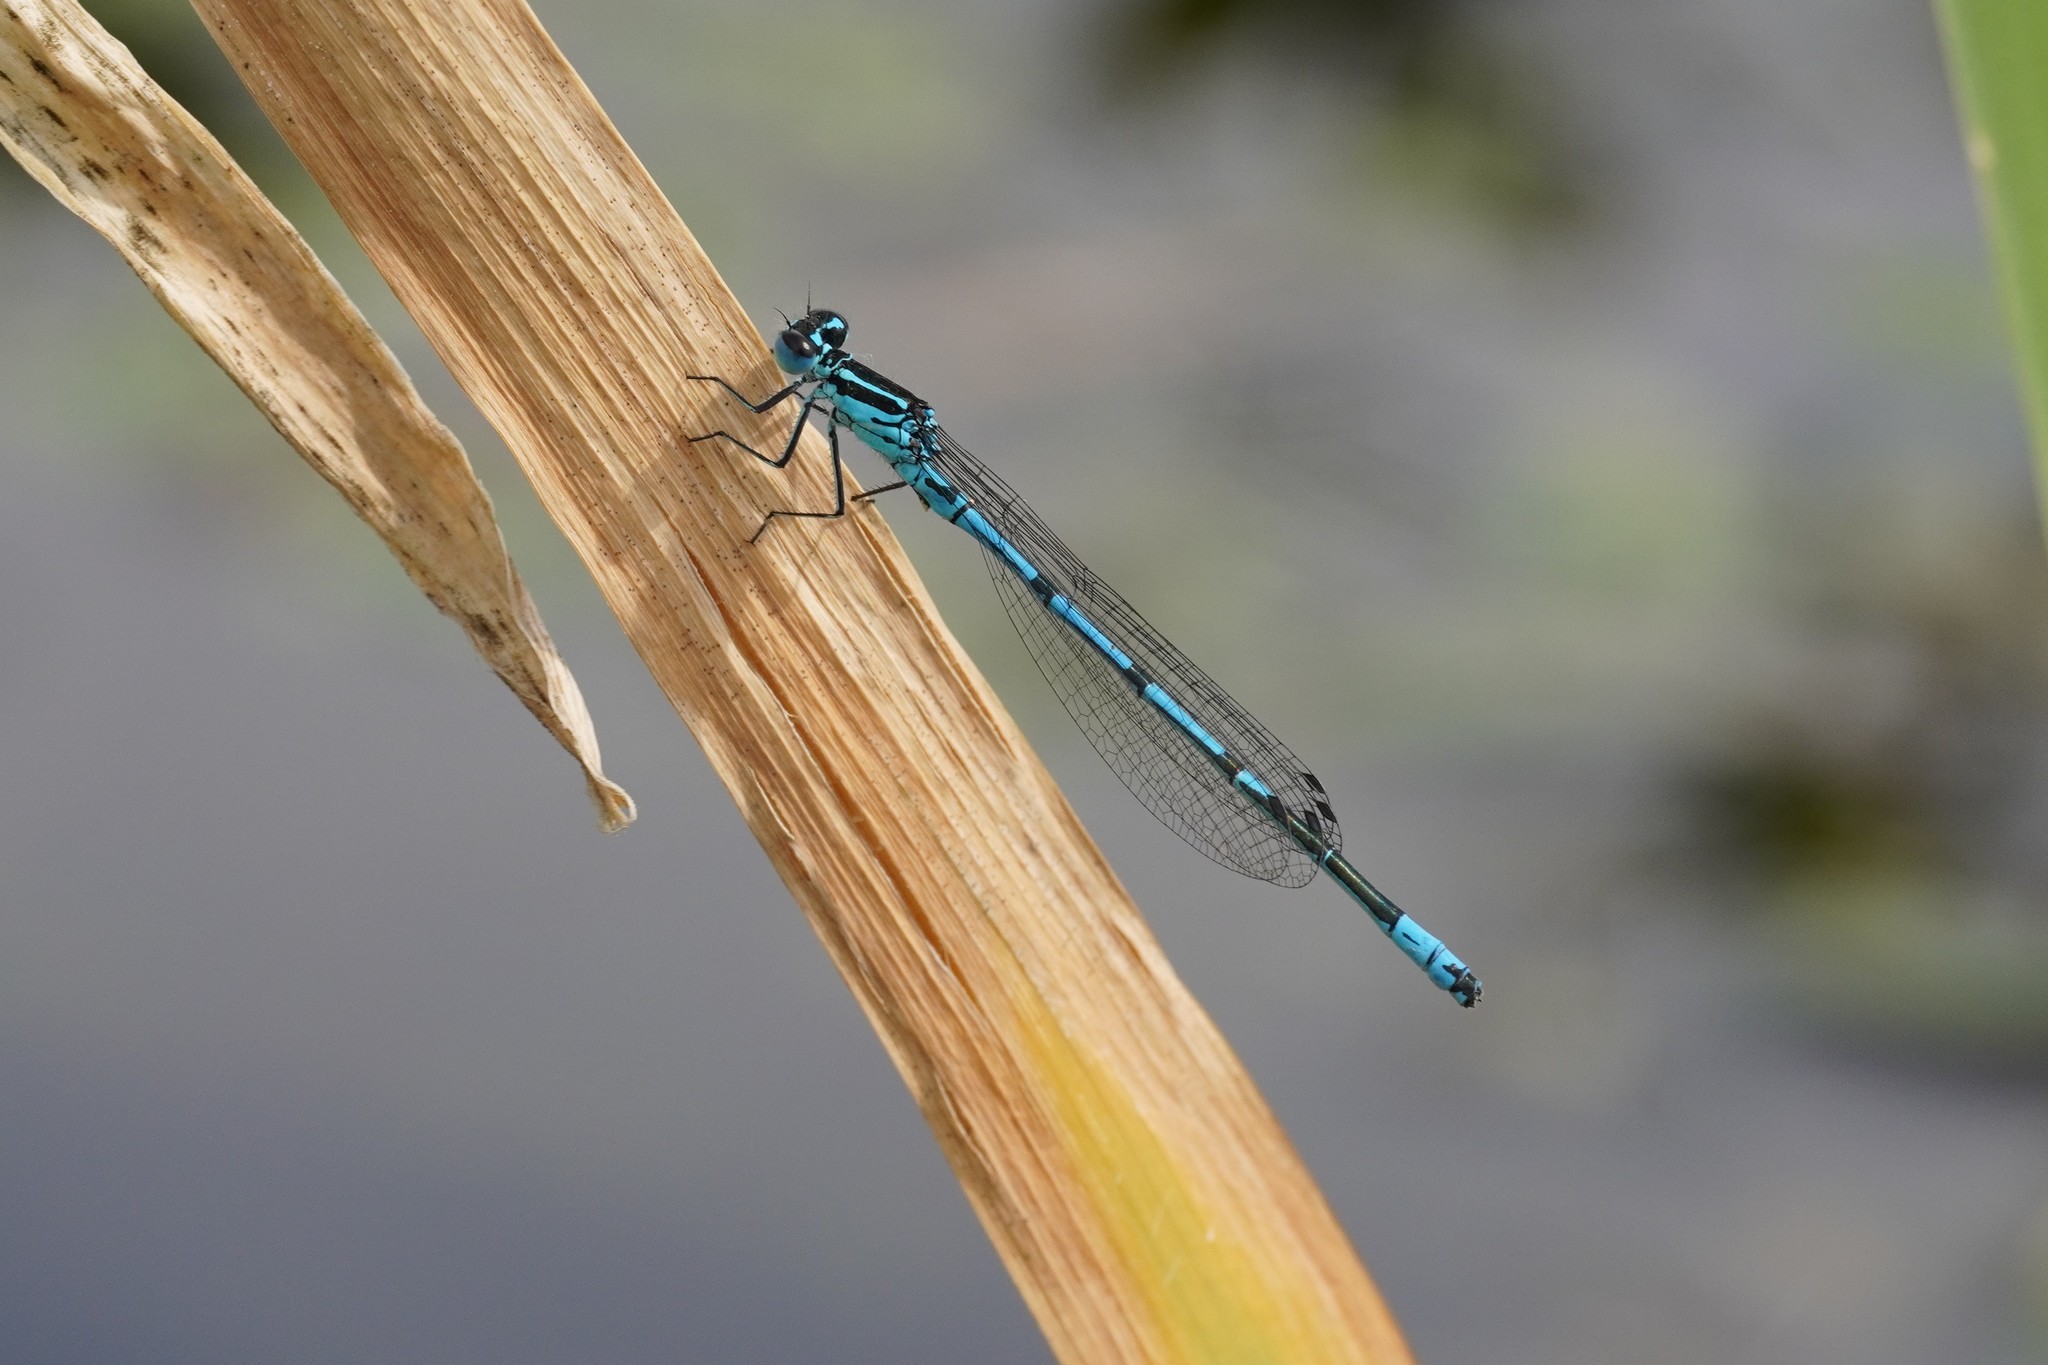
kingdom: Animalia
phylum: Arthropoda
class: Insecta
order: Odonata
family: Coenagrionidae
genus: Coenagrion
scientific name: Coenagrion puella
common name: Azure damselfly
